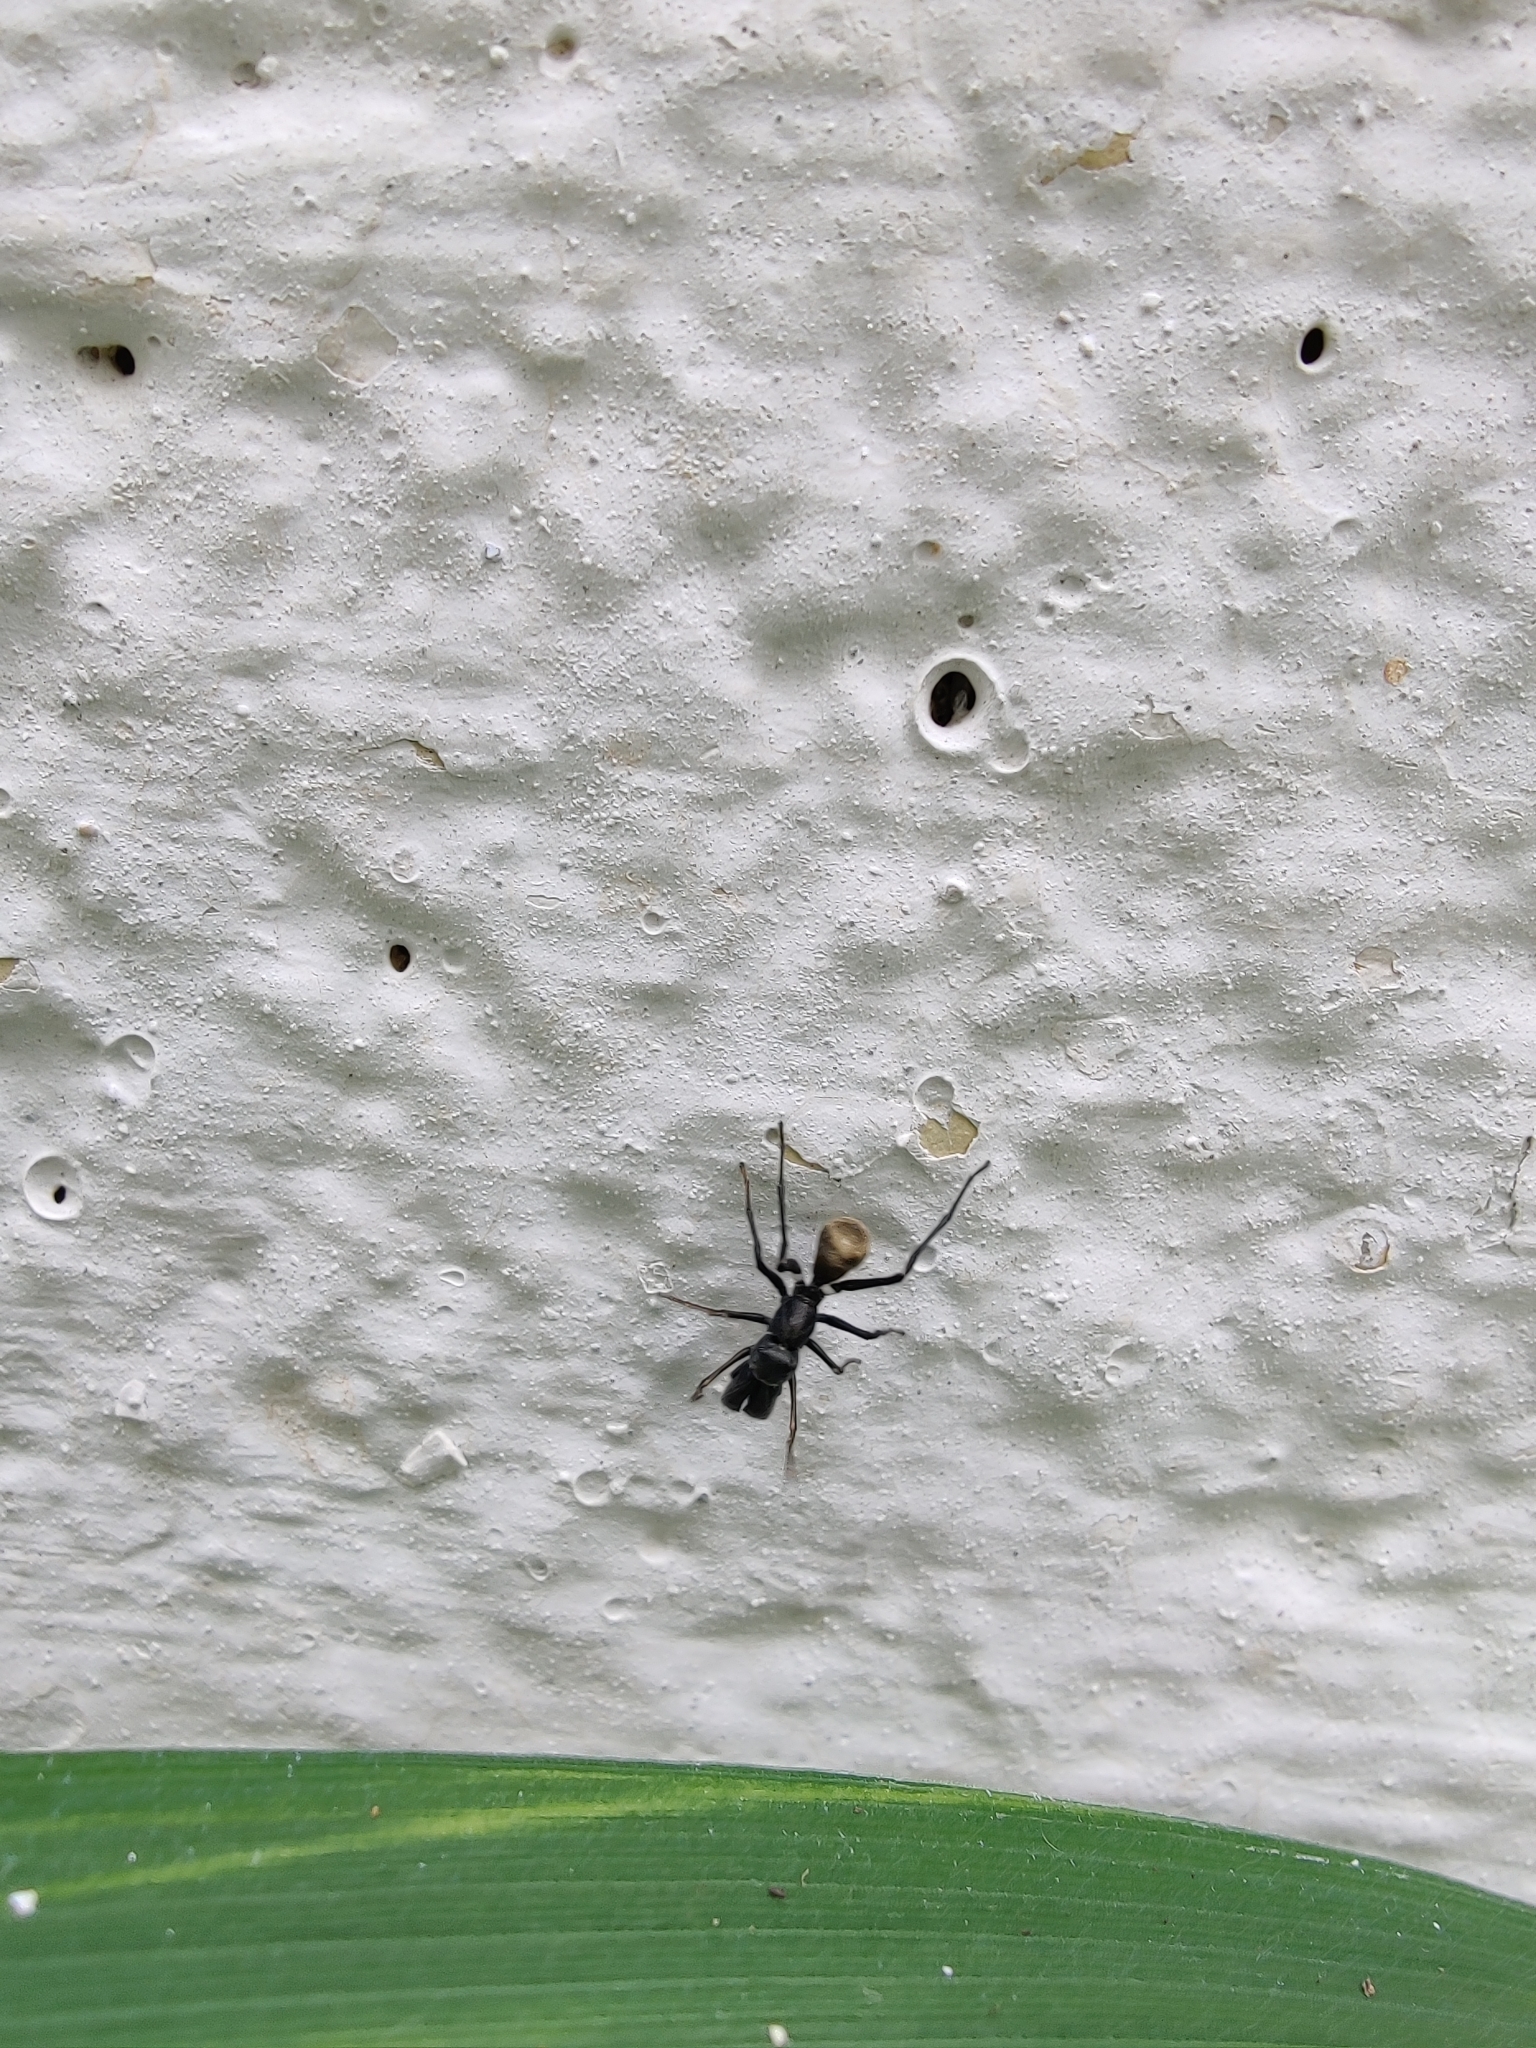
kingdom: Animalia
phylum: Arthropoda
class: Arachnida
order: Araneae
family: Salticidae
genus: Myrmarachne
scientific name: Myrmarachne prava
